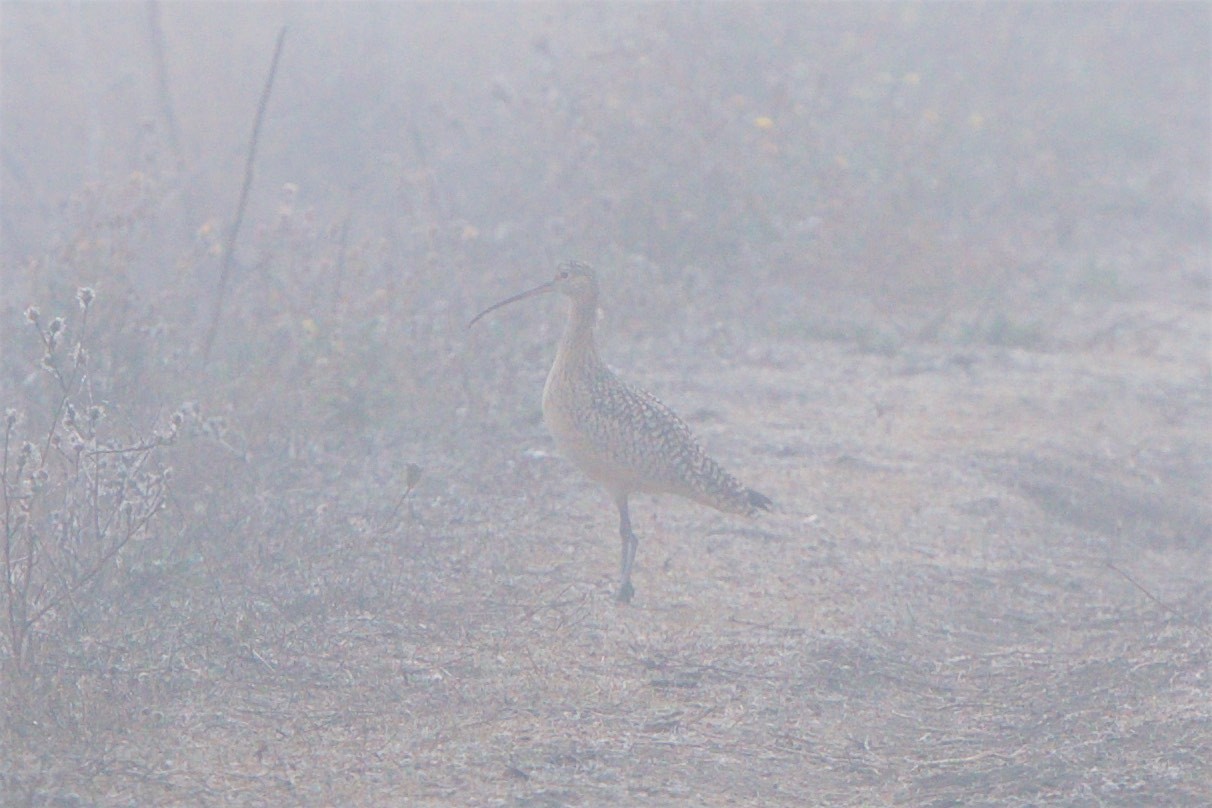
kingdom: Animalia
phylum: Chordata
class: Aves
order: Charadriiformes
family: Scolopacidae
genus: Numenius
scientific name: Numenius americanus
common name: Long-billed curlew
